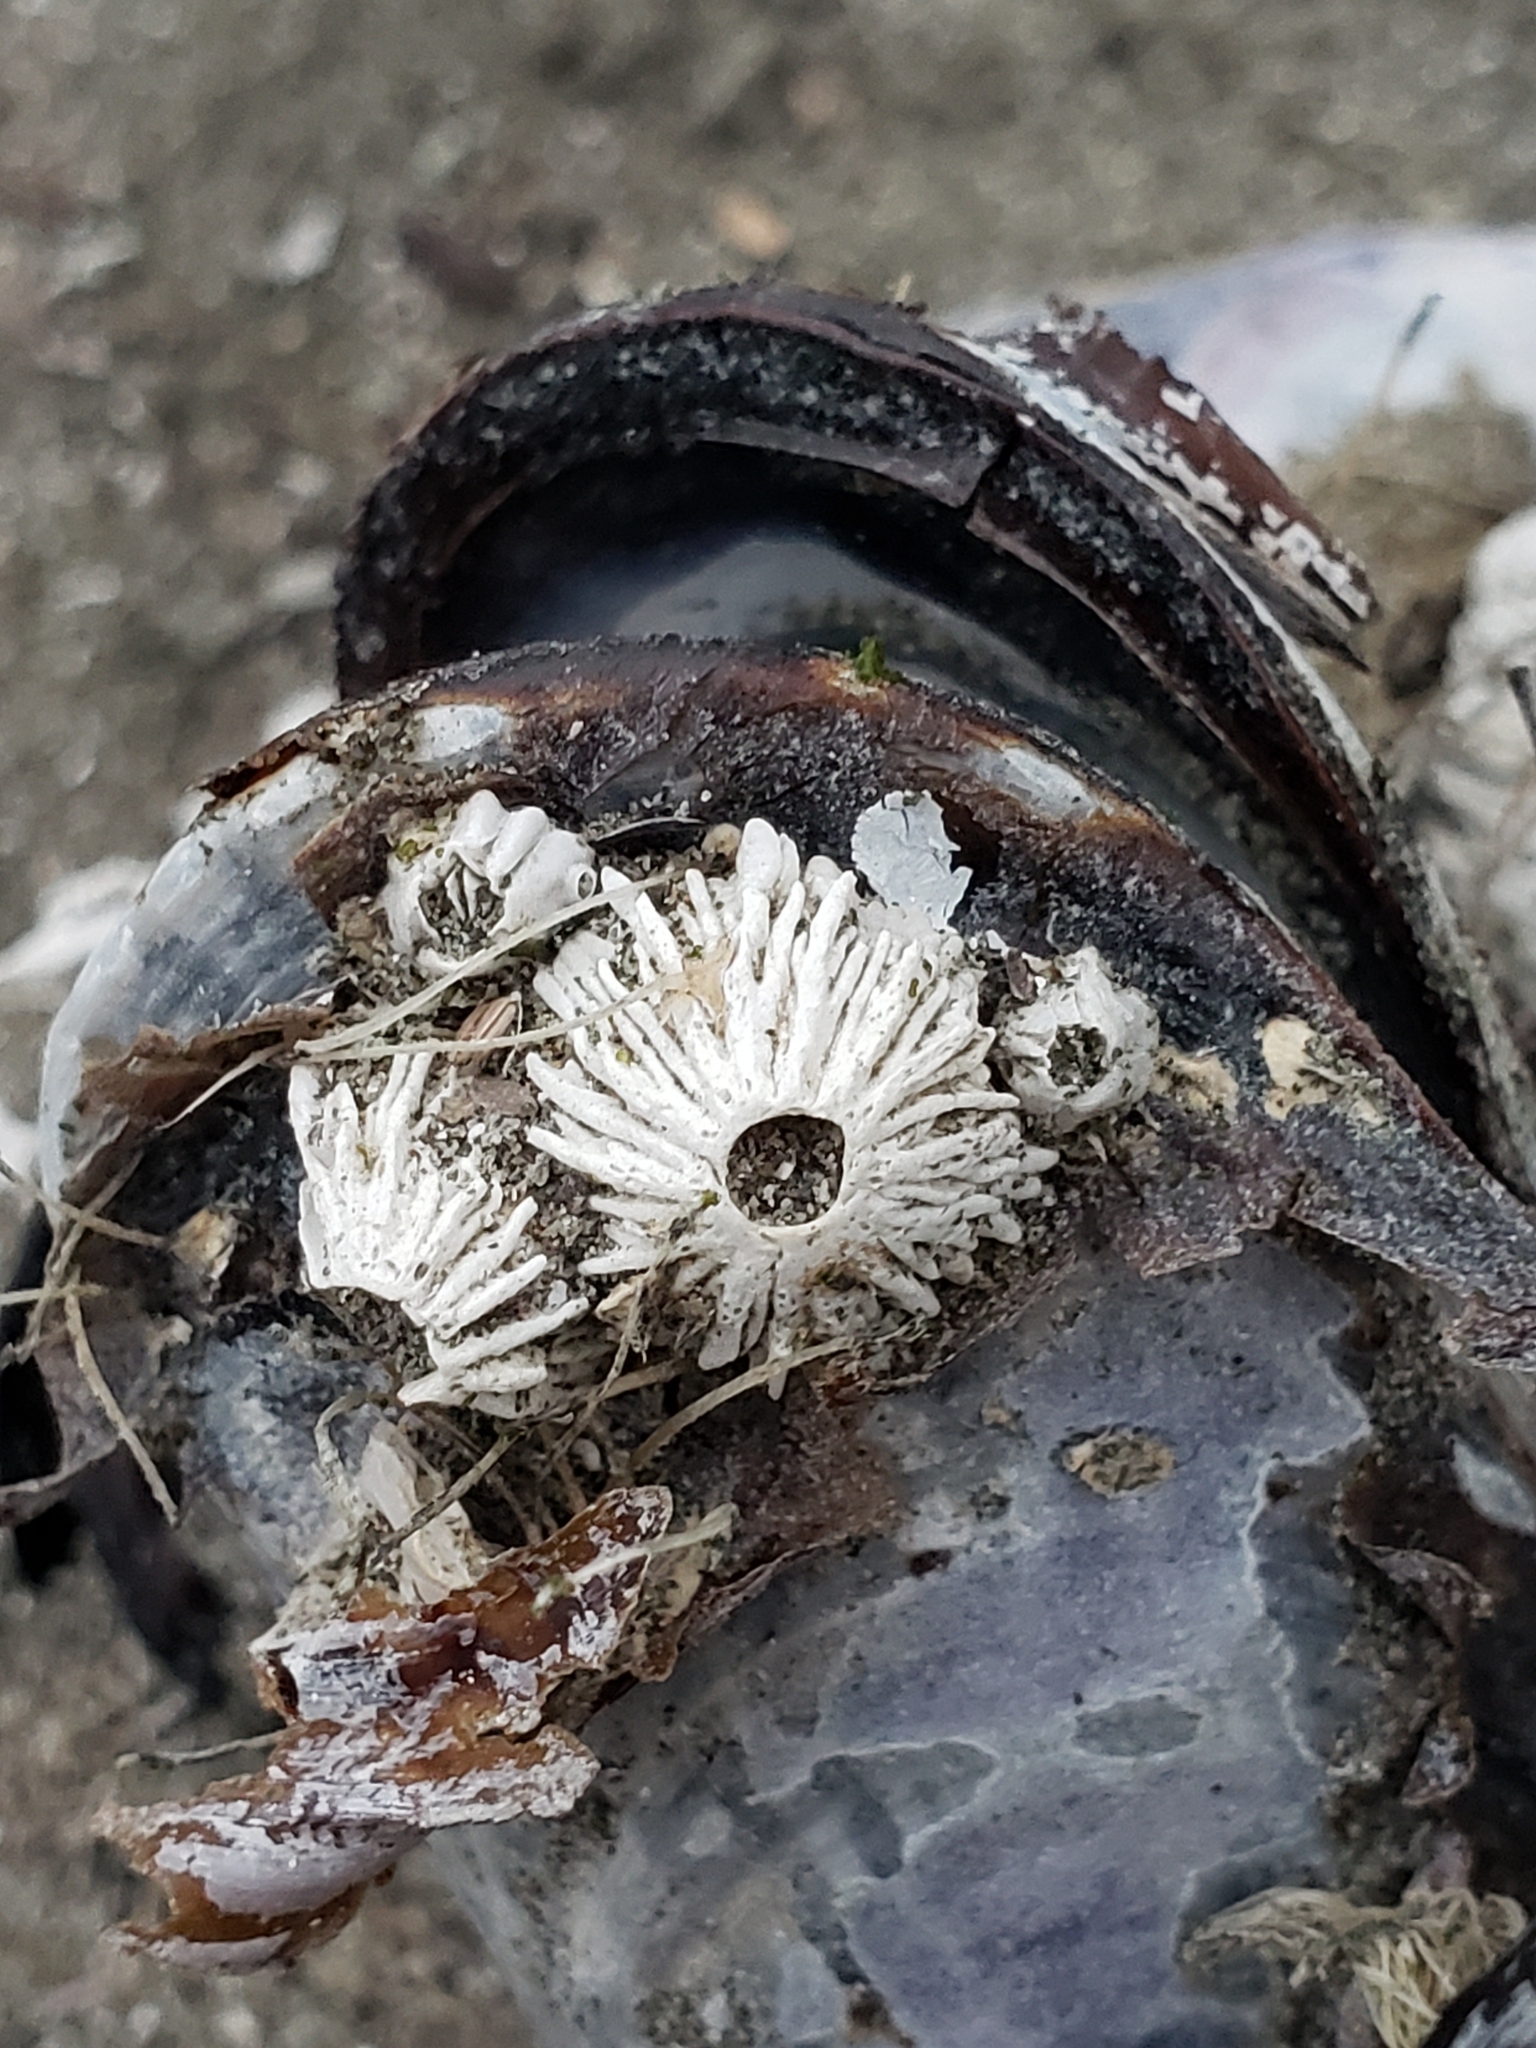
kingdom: Animalia
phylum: Arthropoda
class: Maxillopoda
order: Sessilia
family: Archaeobalanidae
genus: Semibalanus
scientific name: Semibalanus cariosus
